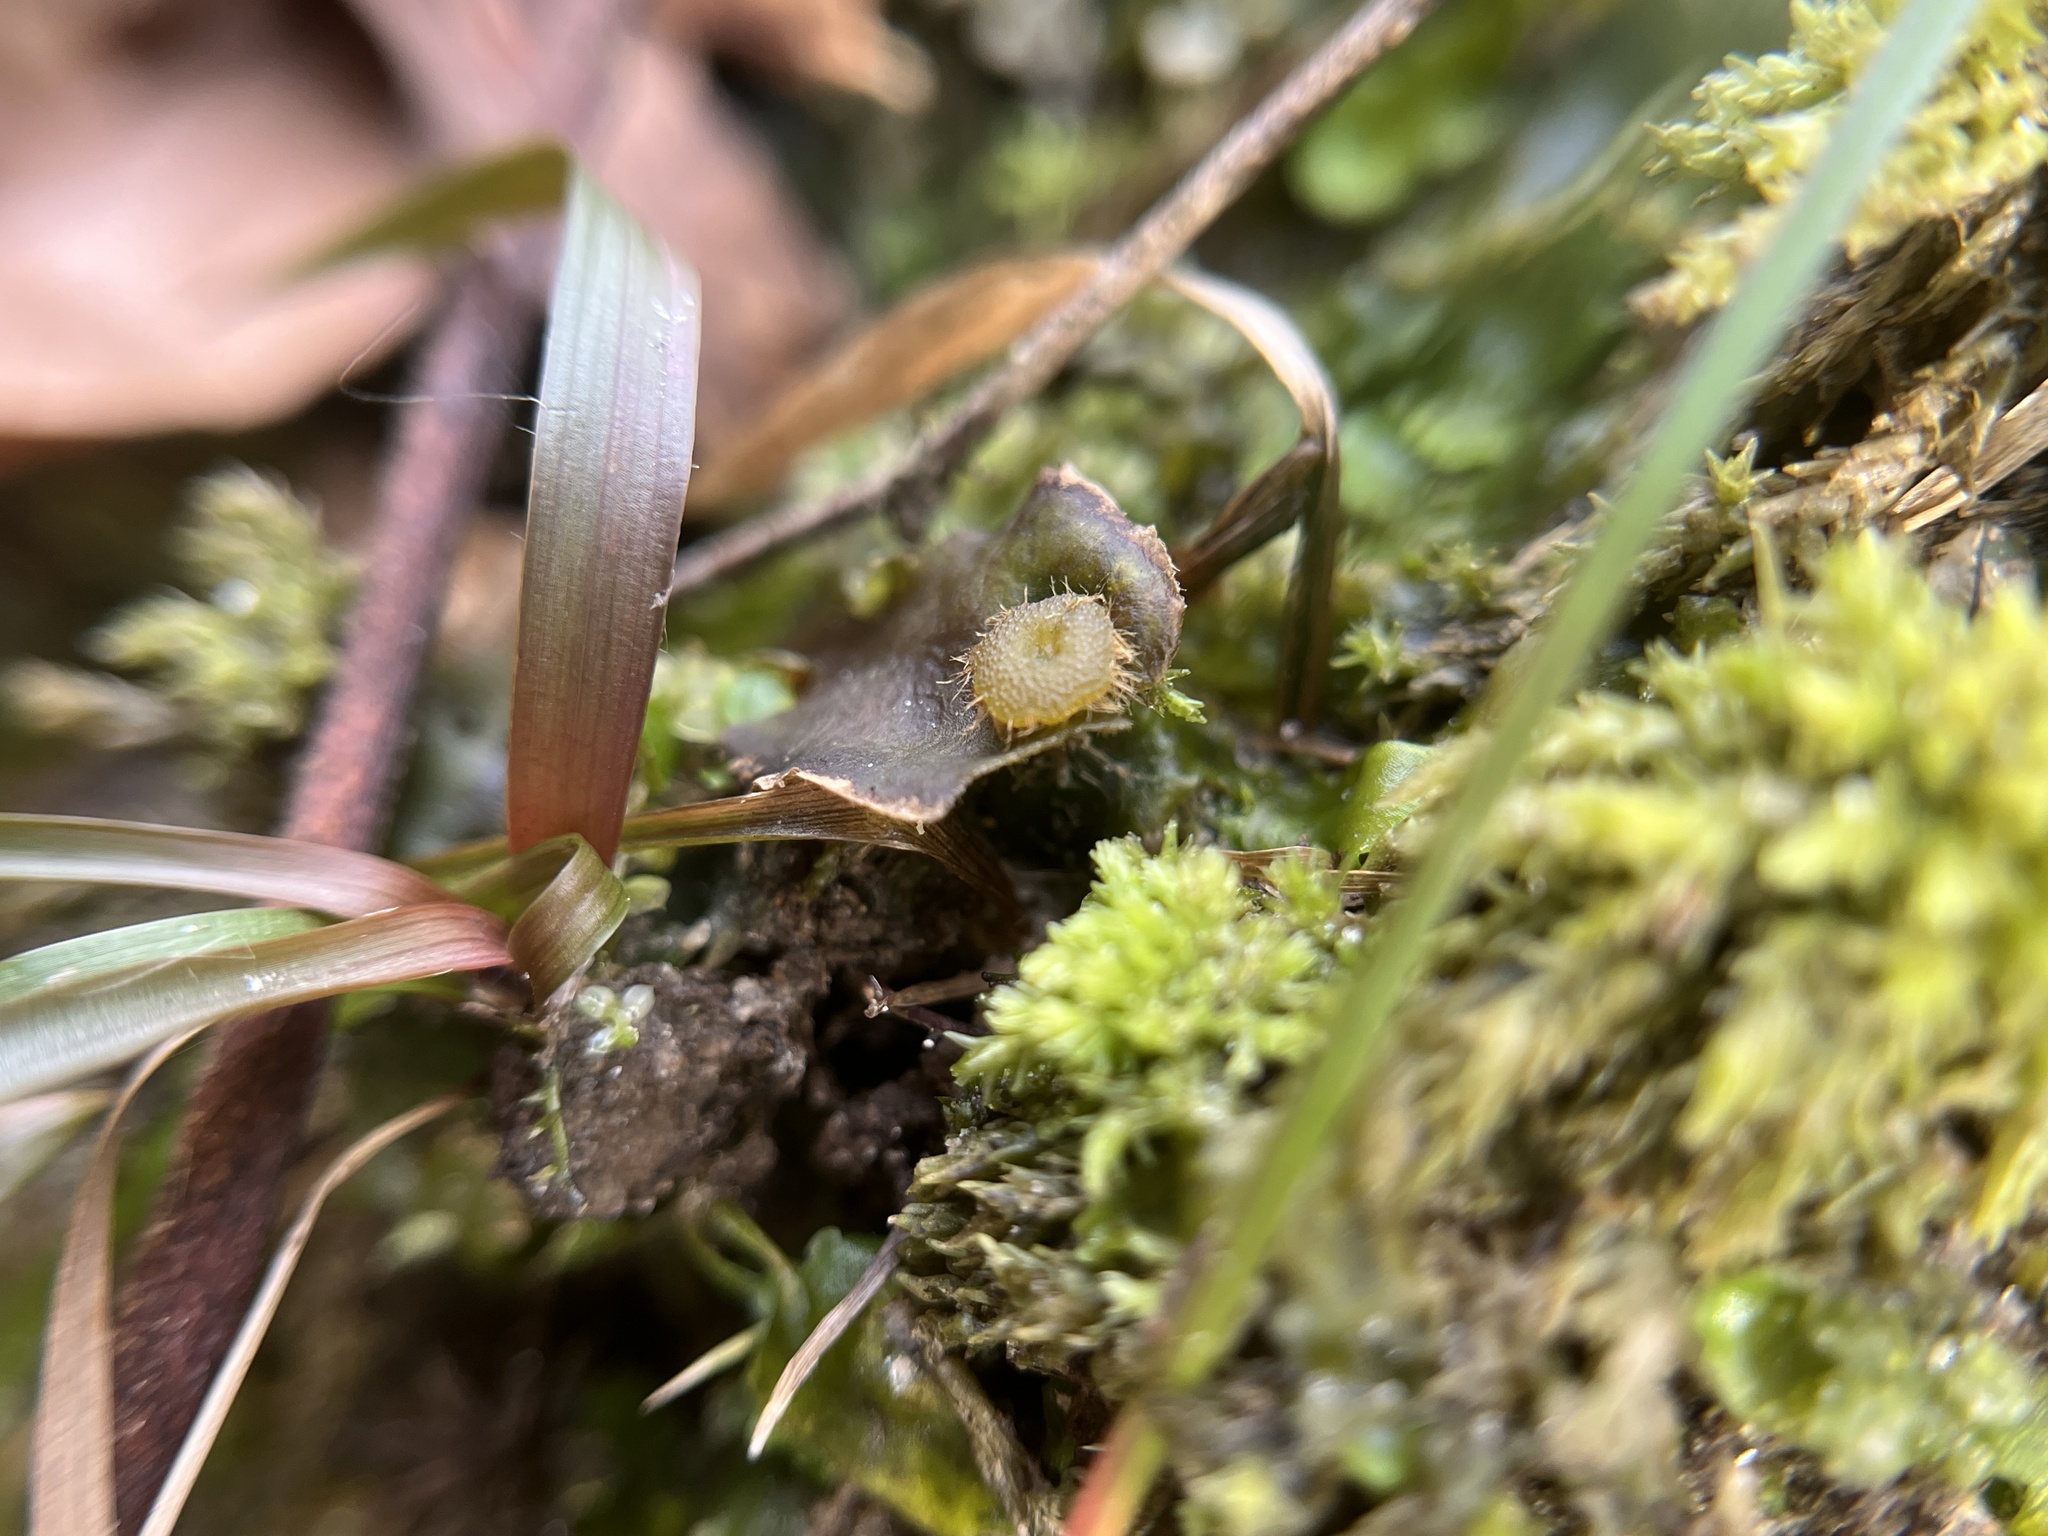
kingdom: Plantae
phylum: Marchantiophyta
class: Marchantiopsida
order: Marchantiales
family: Dumortieraceae
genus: Dumortiera
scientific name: Dumortiera hirsuta
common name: Dumortier's liverwort
